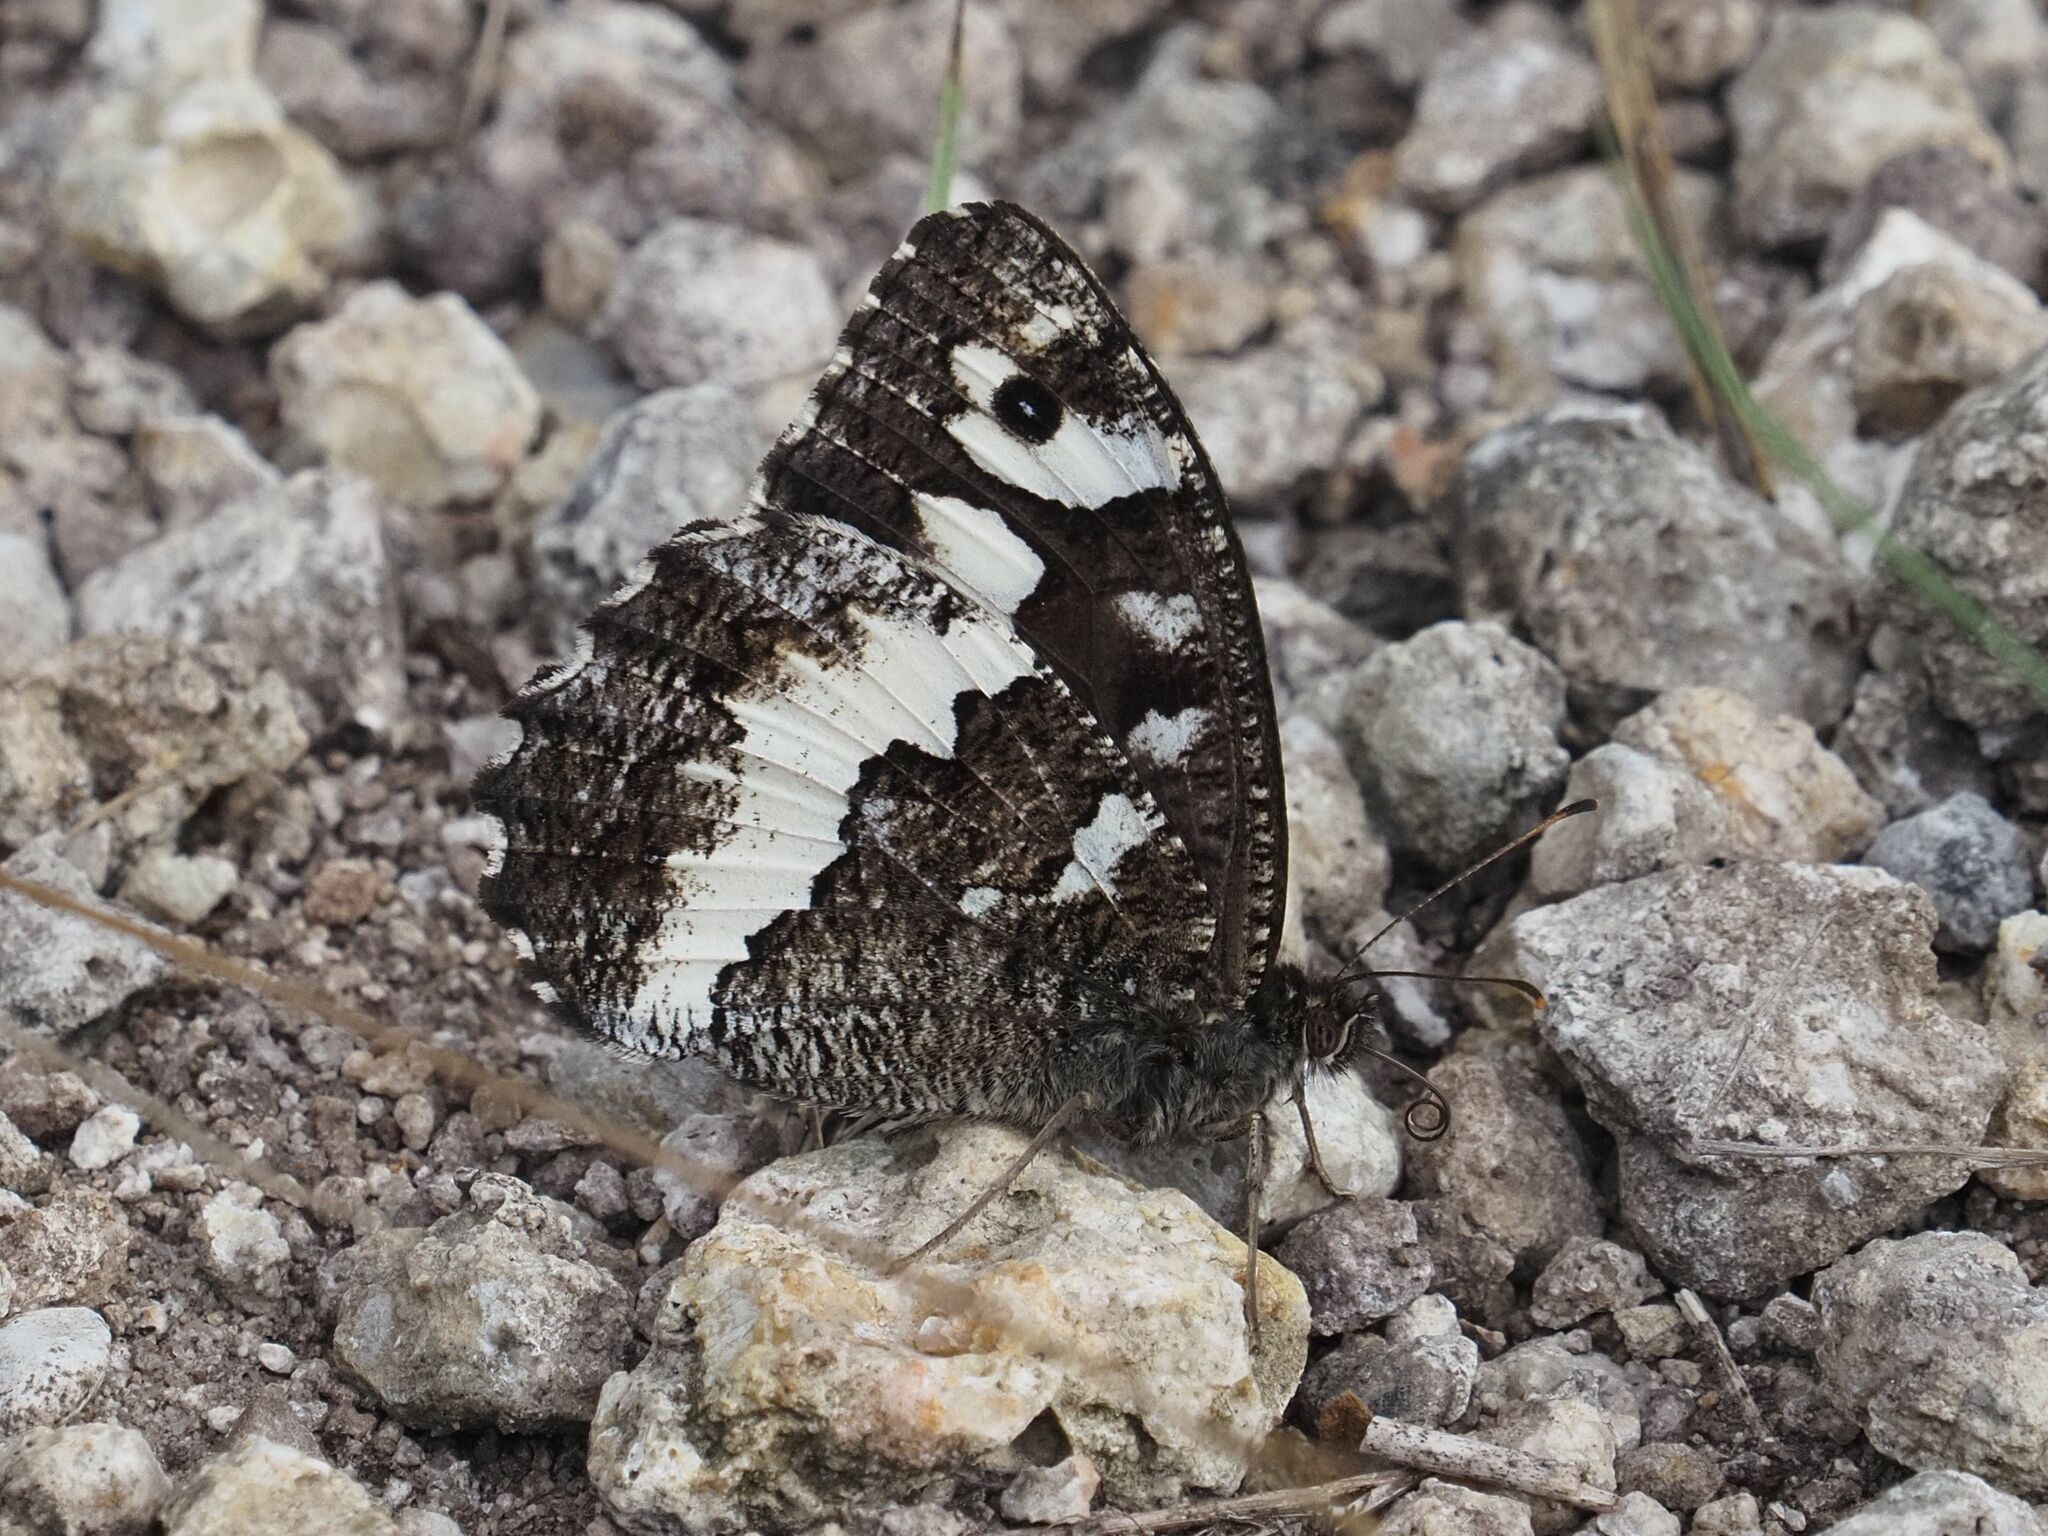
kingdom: Animalia
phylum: Arthropoda
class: Insecta
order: Lepidoptera
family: Lycaenidae
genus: Loweia
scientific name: Loweia tityrus
